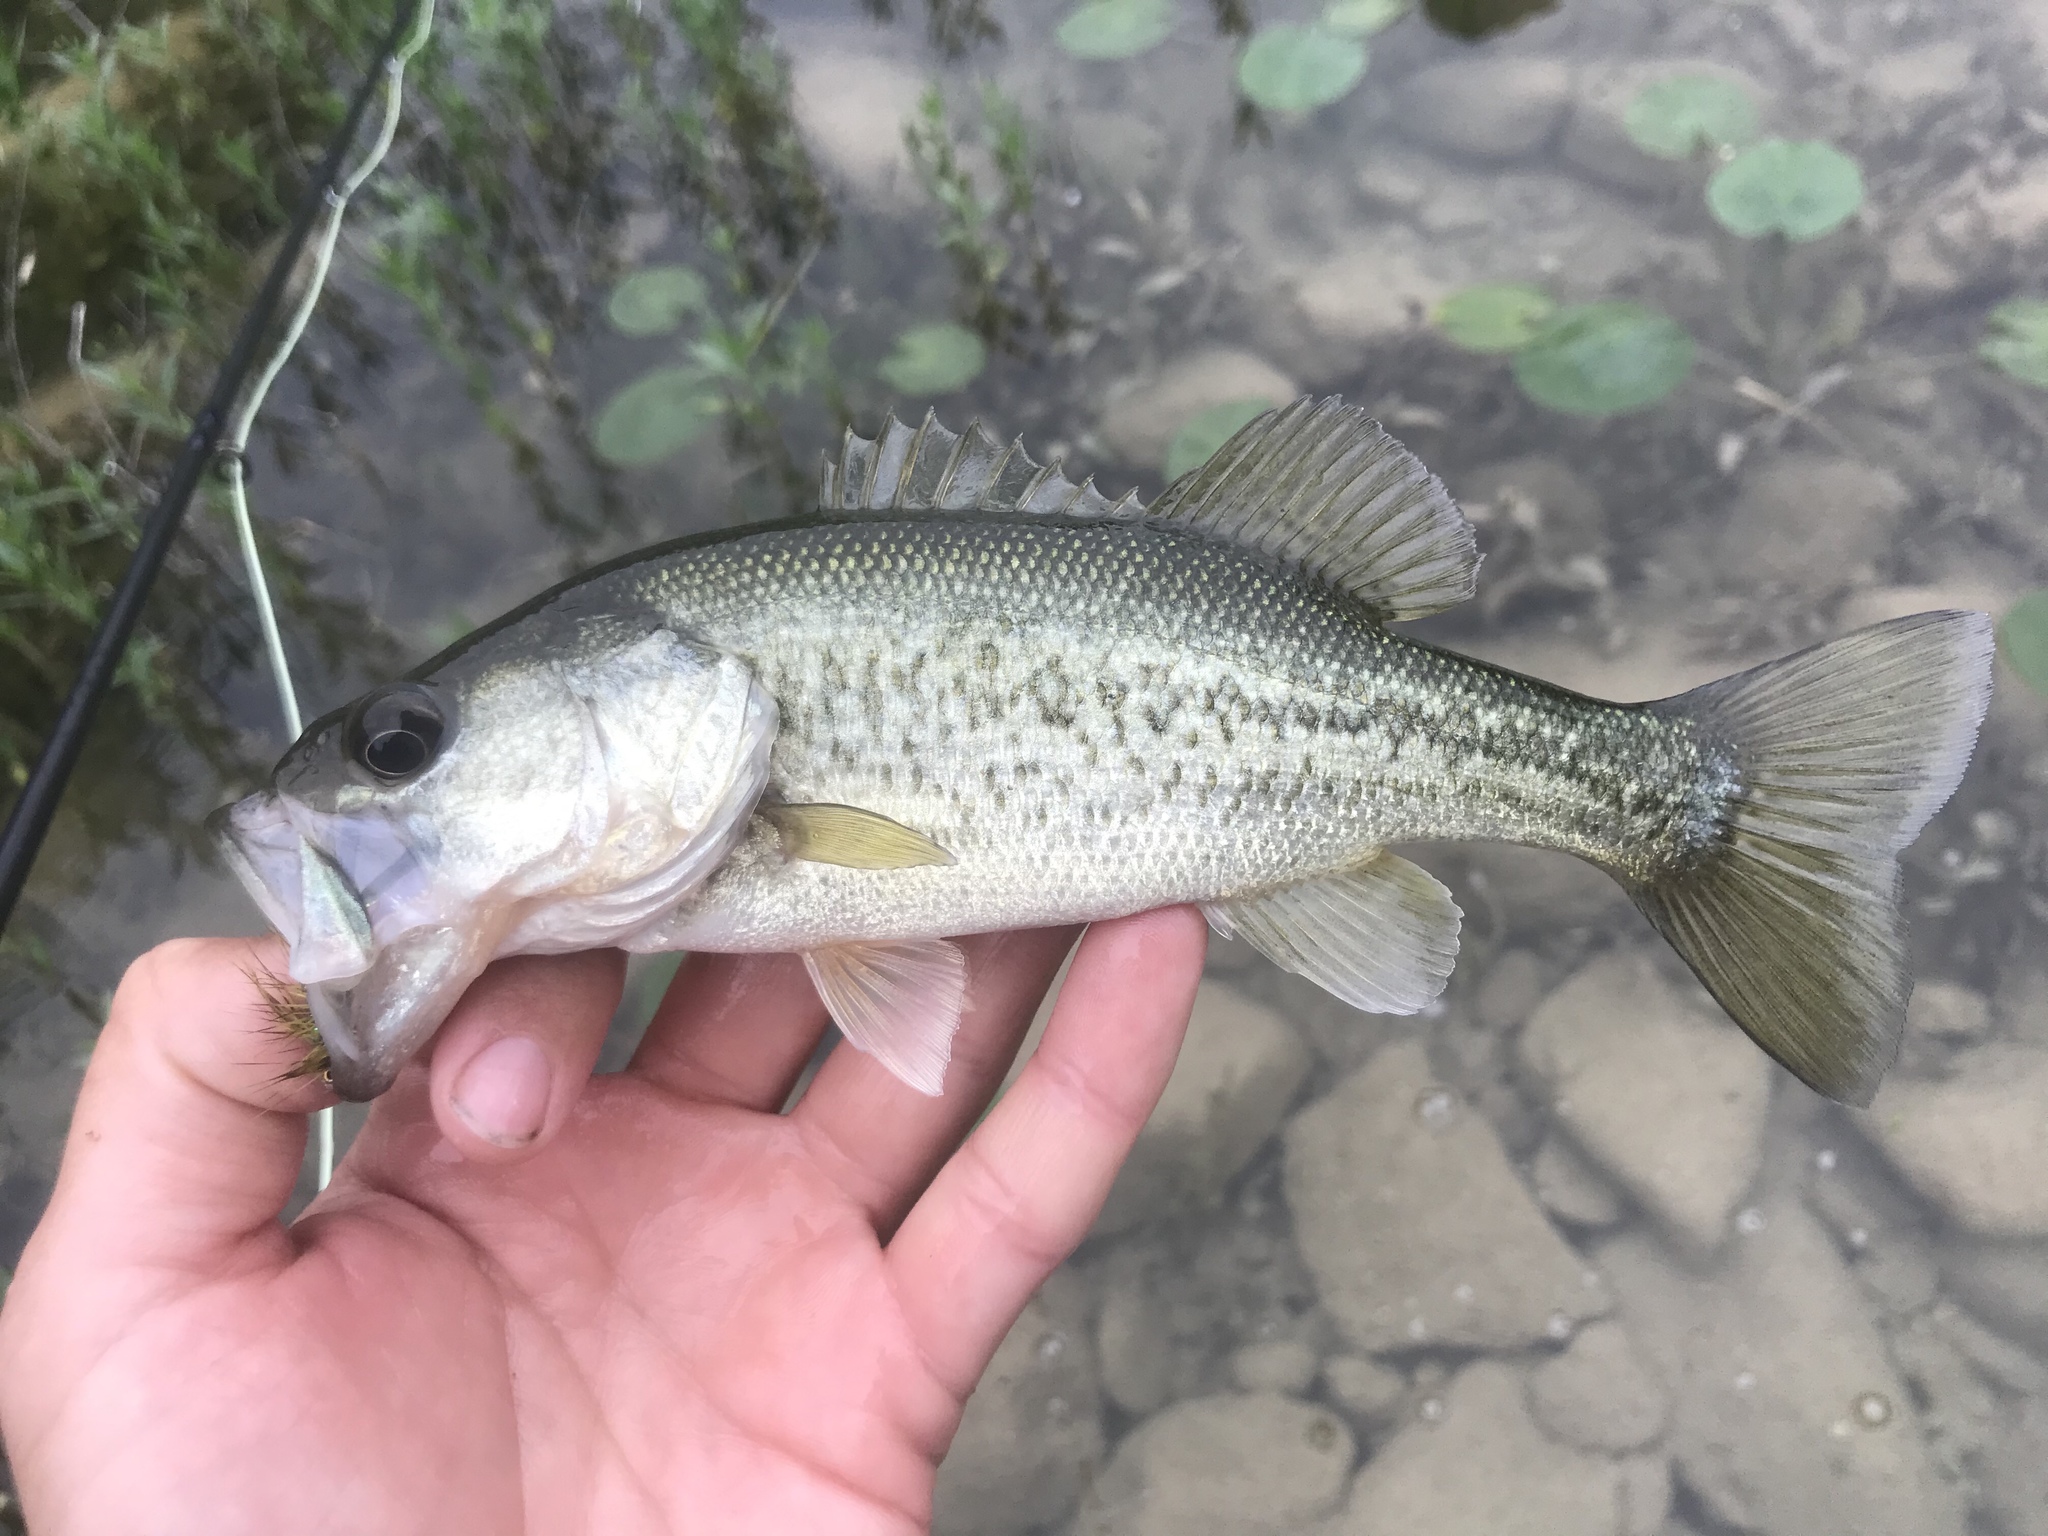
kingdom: Animalia
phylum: Chordata
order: Perciformes
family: Centrarchidae
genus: Micropterus
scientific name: Micropterus
